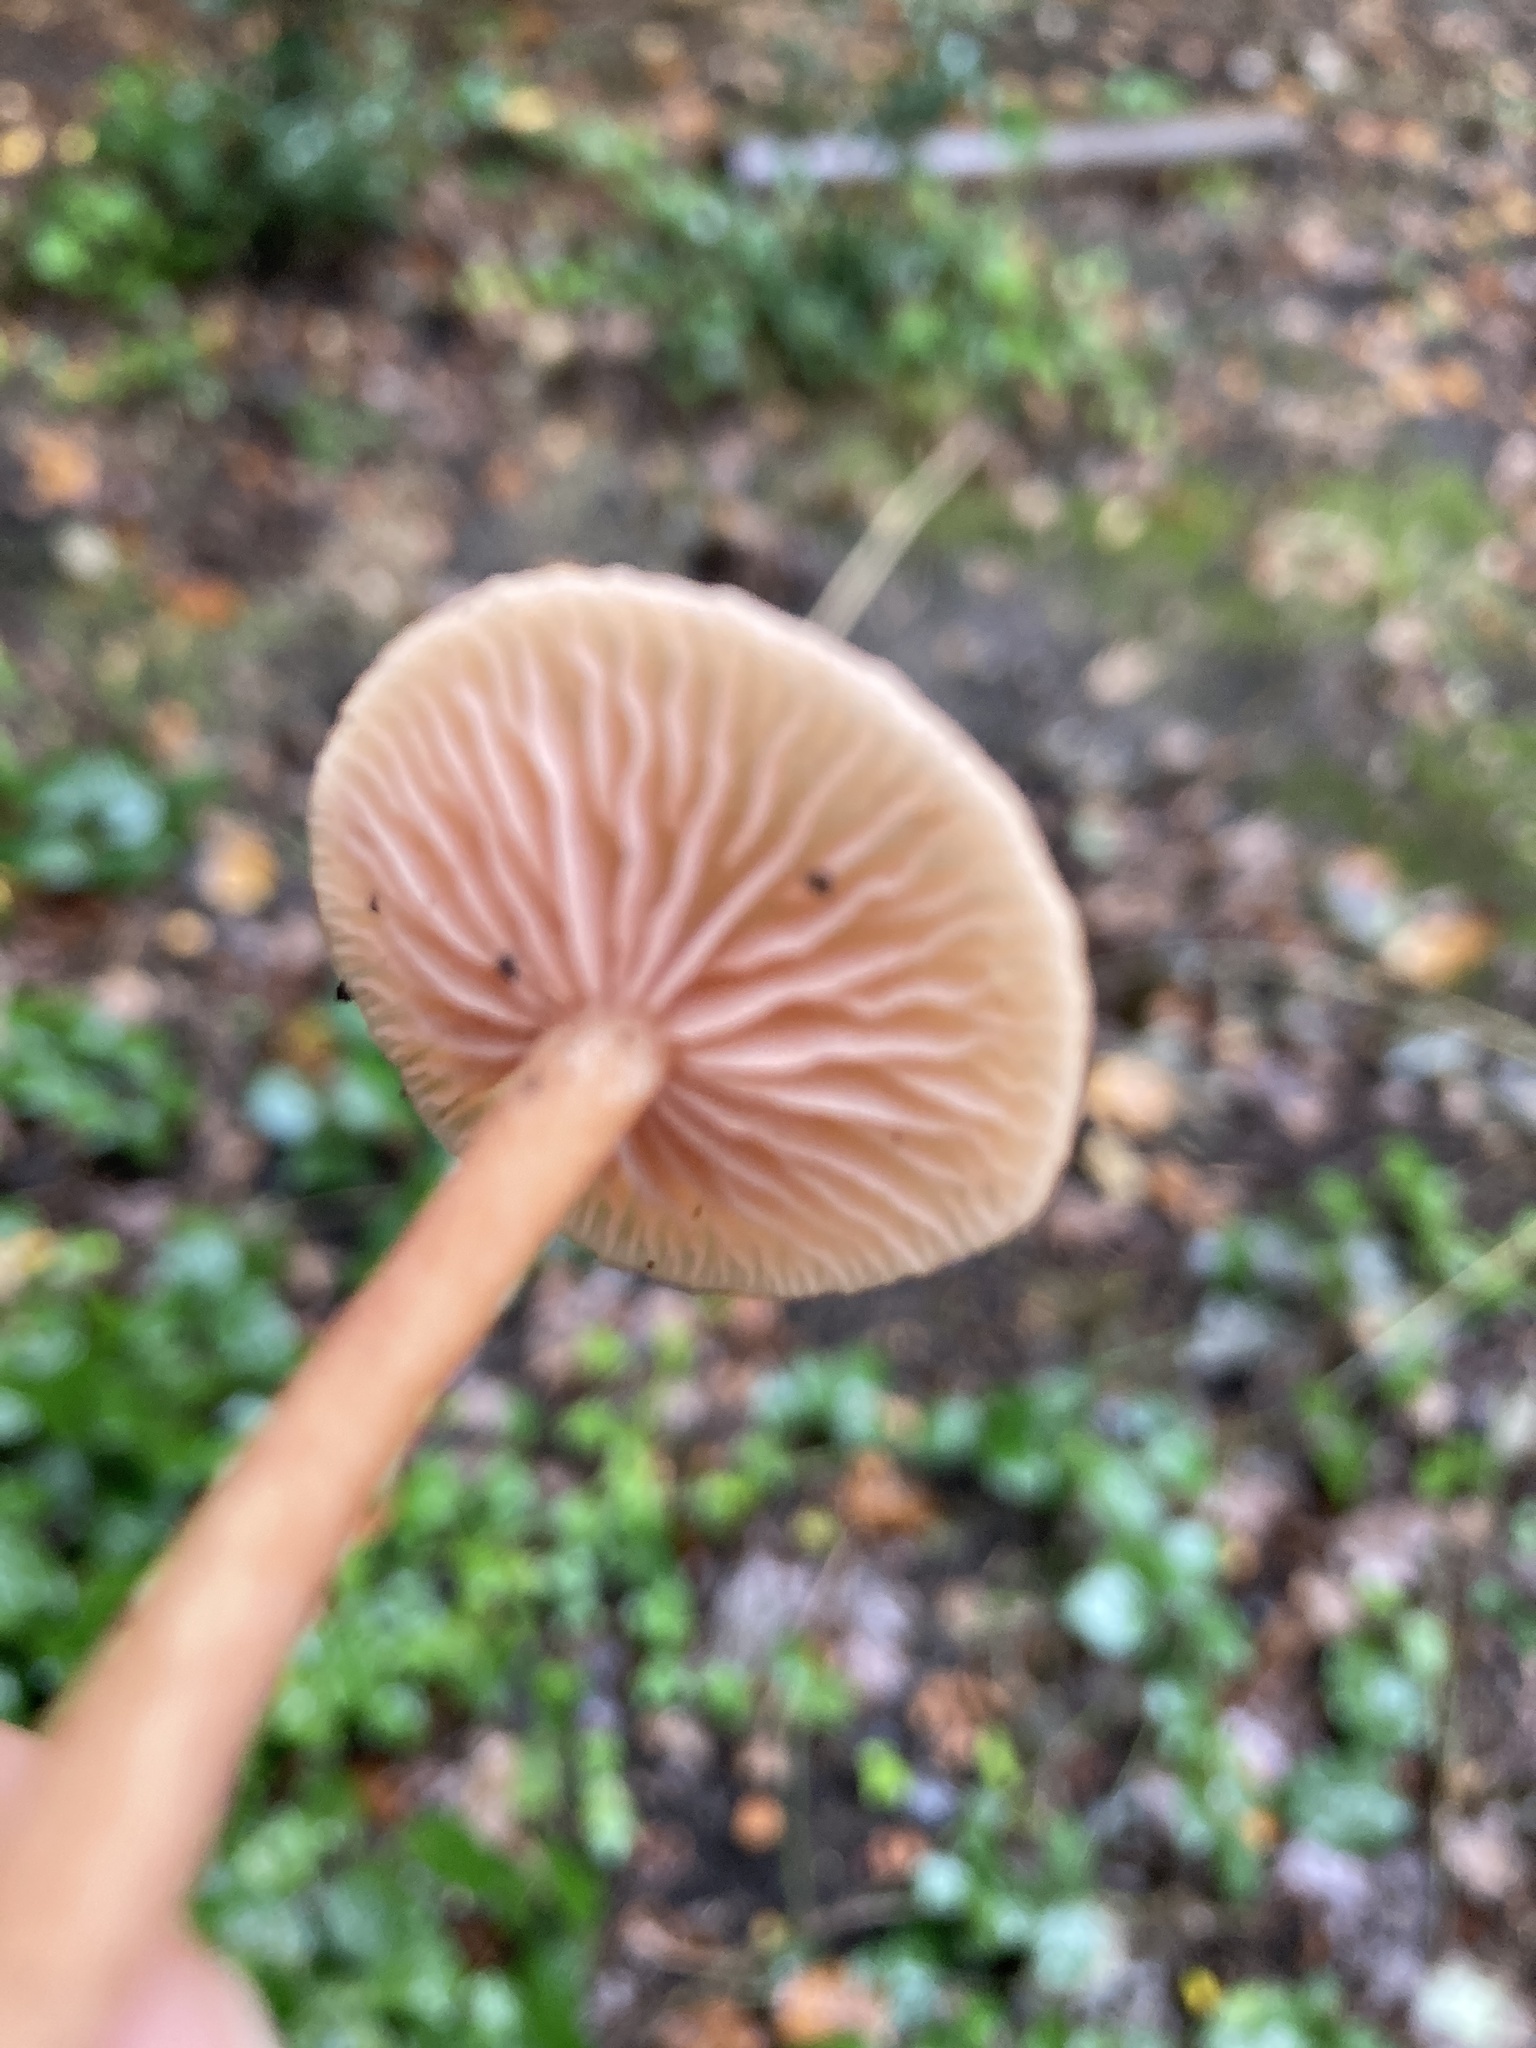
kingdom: Fungi
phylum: Basidiomycota
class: Agaricomycetes
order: Agaricales
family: Tubariaceae
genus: Tubaria
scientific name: Tubaria furfuracea
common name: Scurfy twiglet
